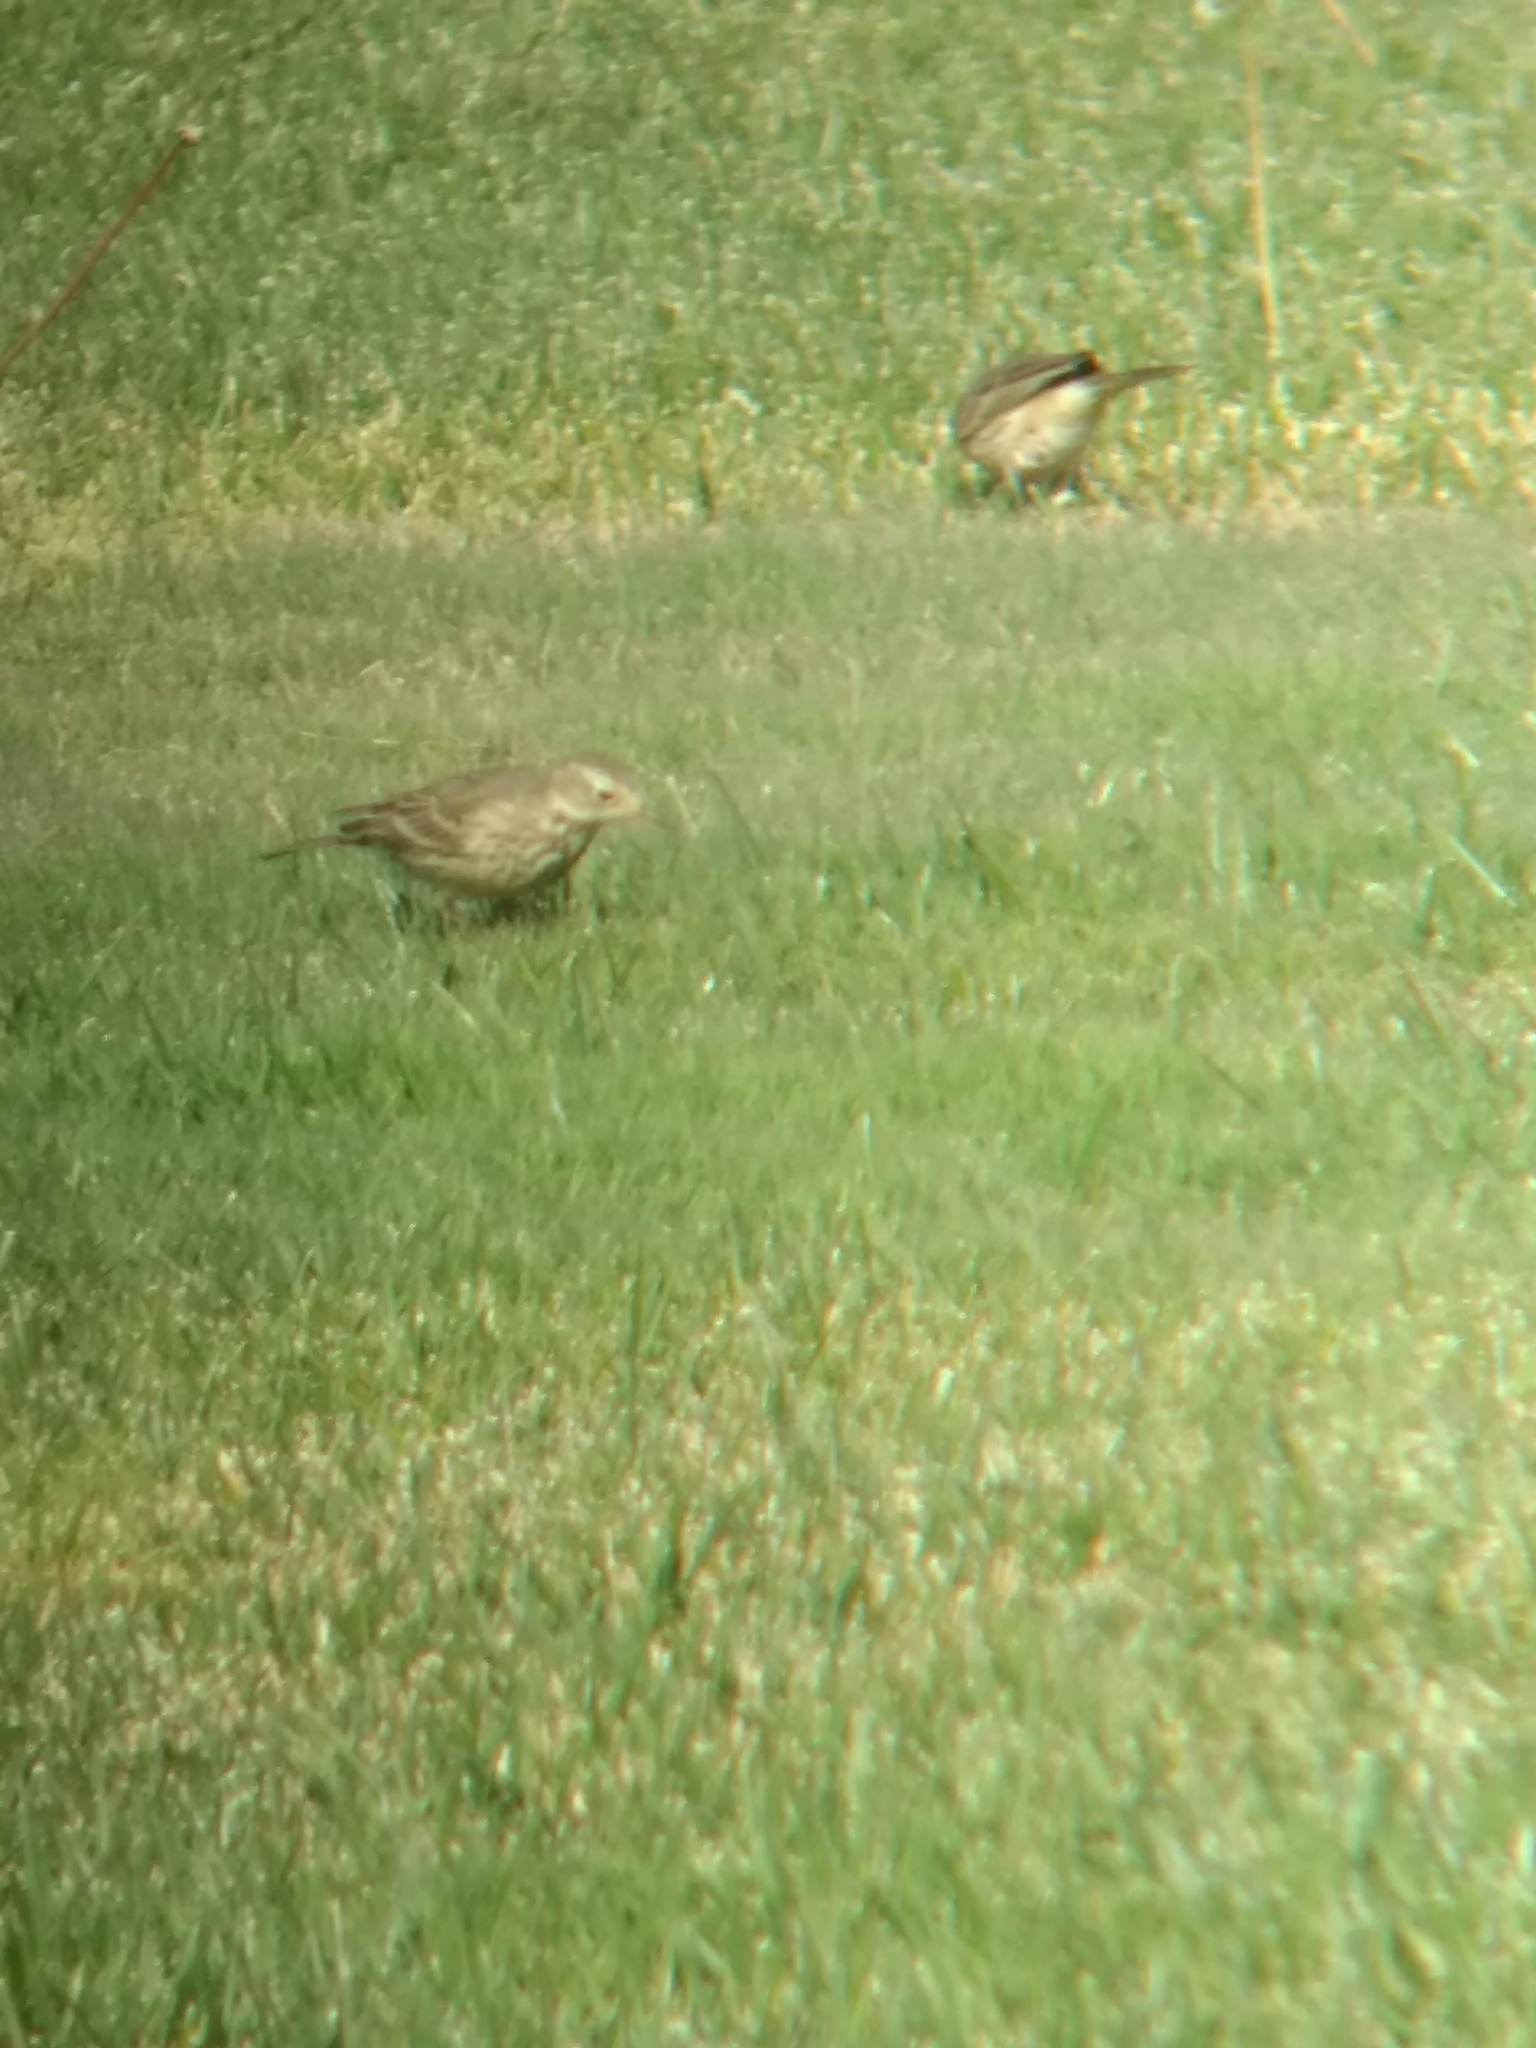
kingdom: Animalia
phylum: Chordata
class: Aves
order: Passeriformes
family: Motacillidae
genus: Anthus
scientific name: Anthus rubescens
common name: Buff-bellied pipit
